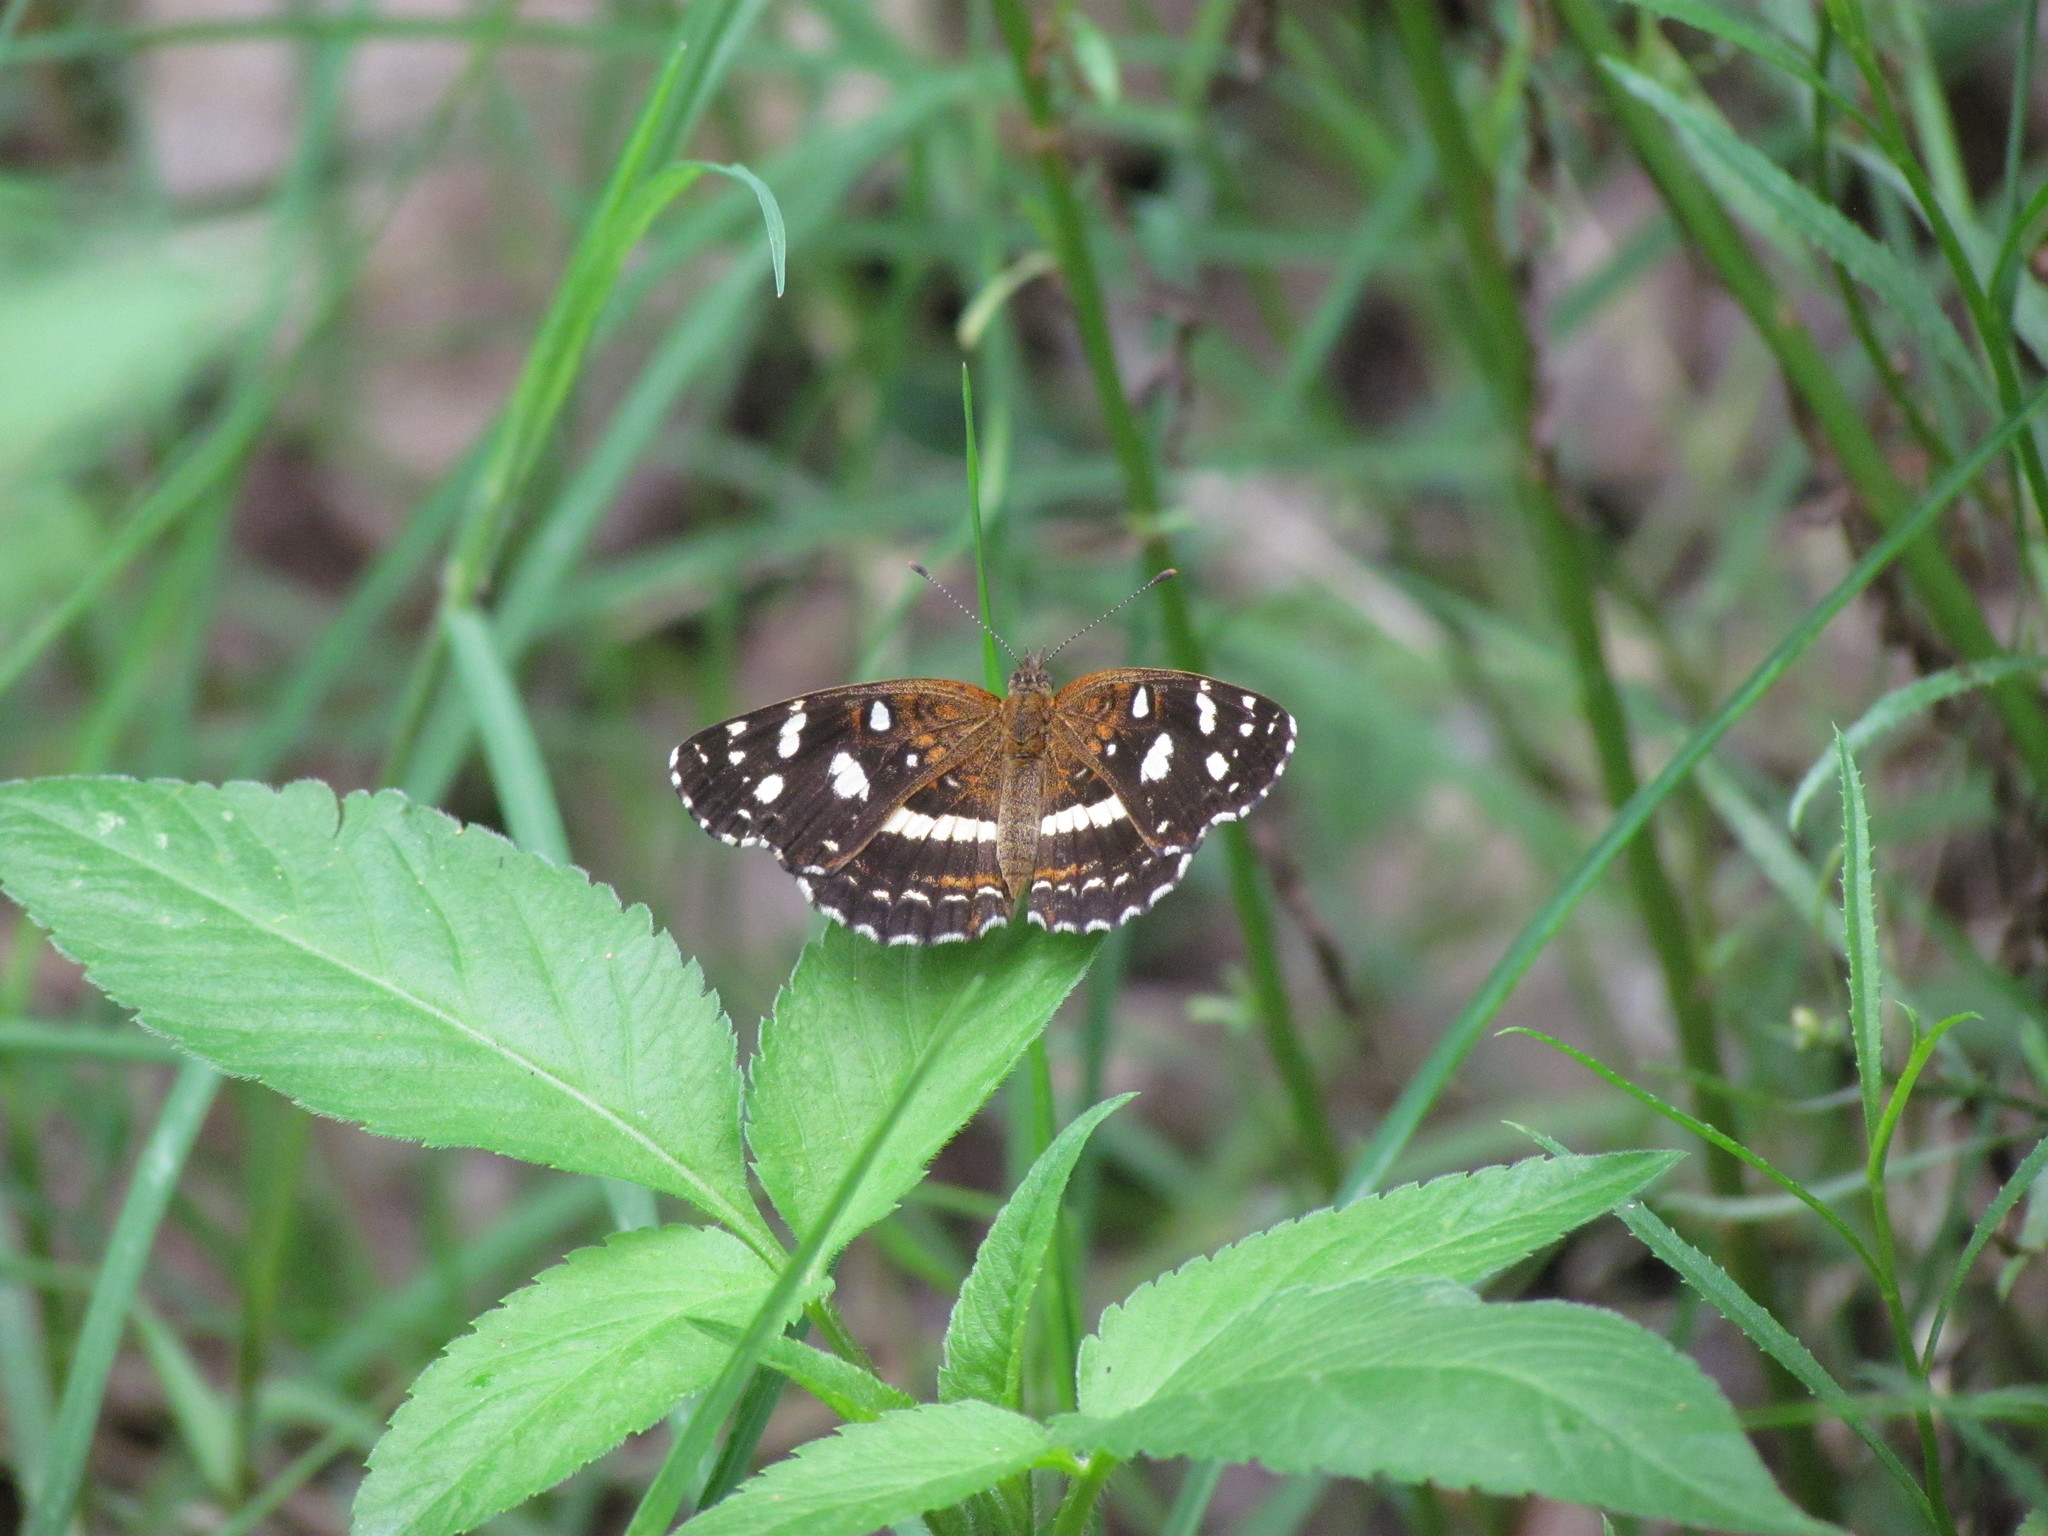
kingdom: Animalia
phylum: Arthropoda
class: Insecta
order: Lepidoptera
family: Nymphalidae
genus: Ortilia
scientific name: Ortilia ithra
